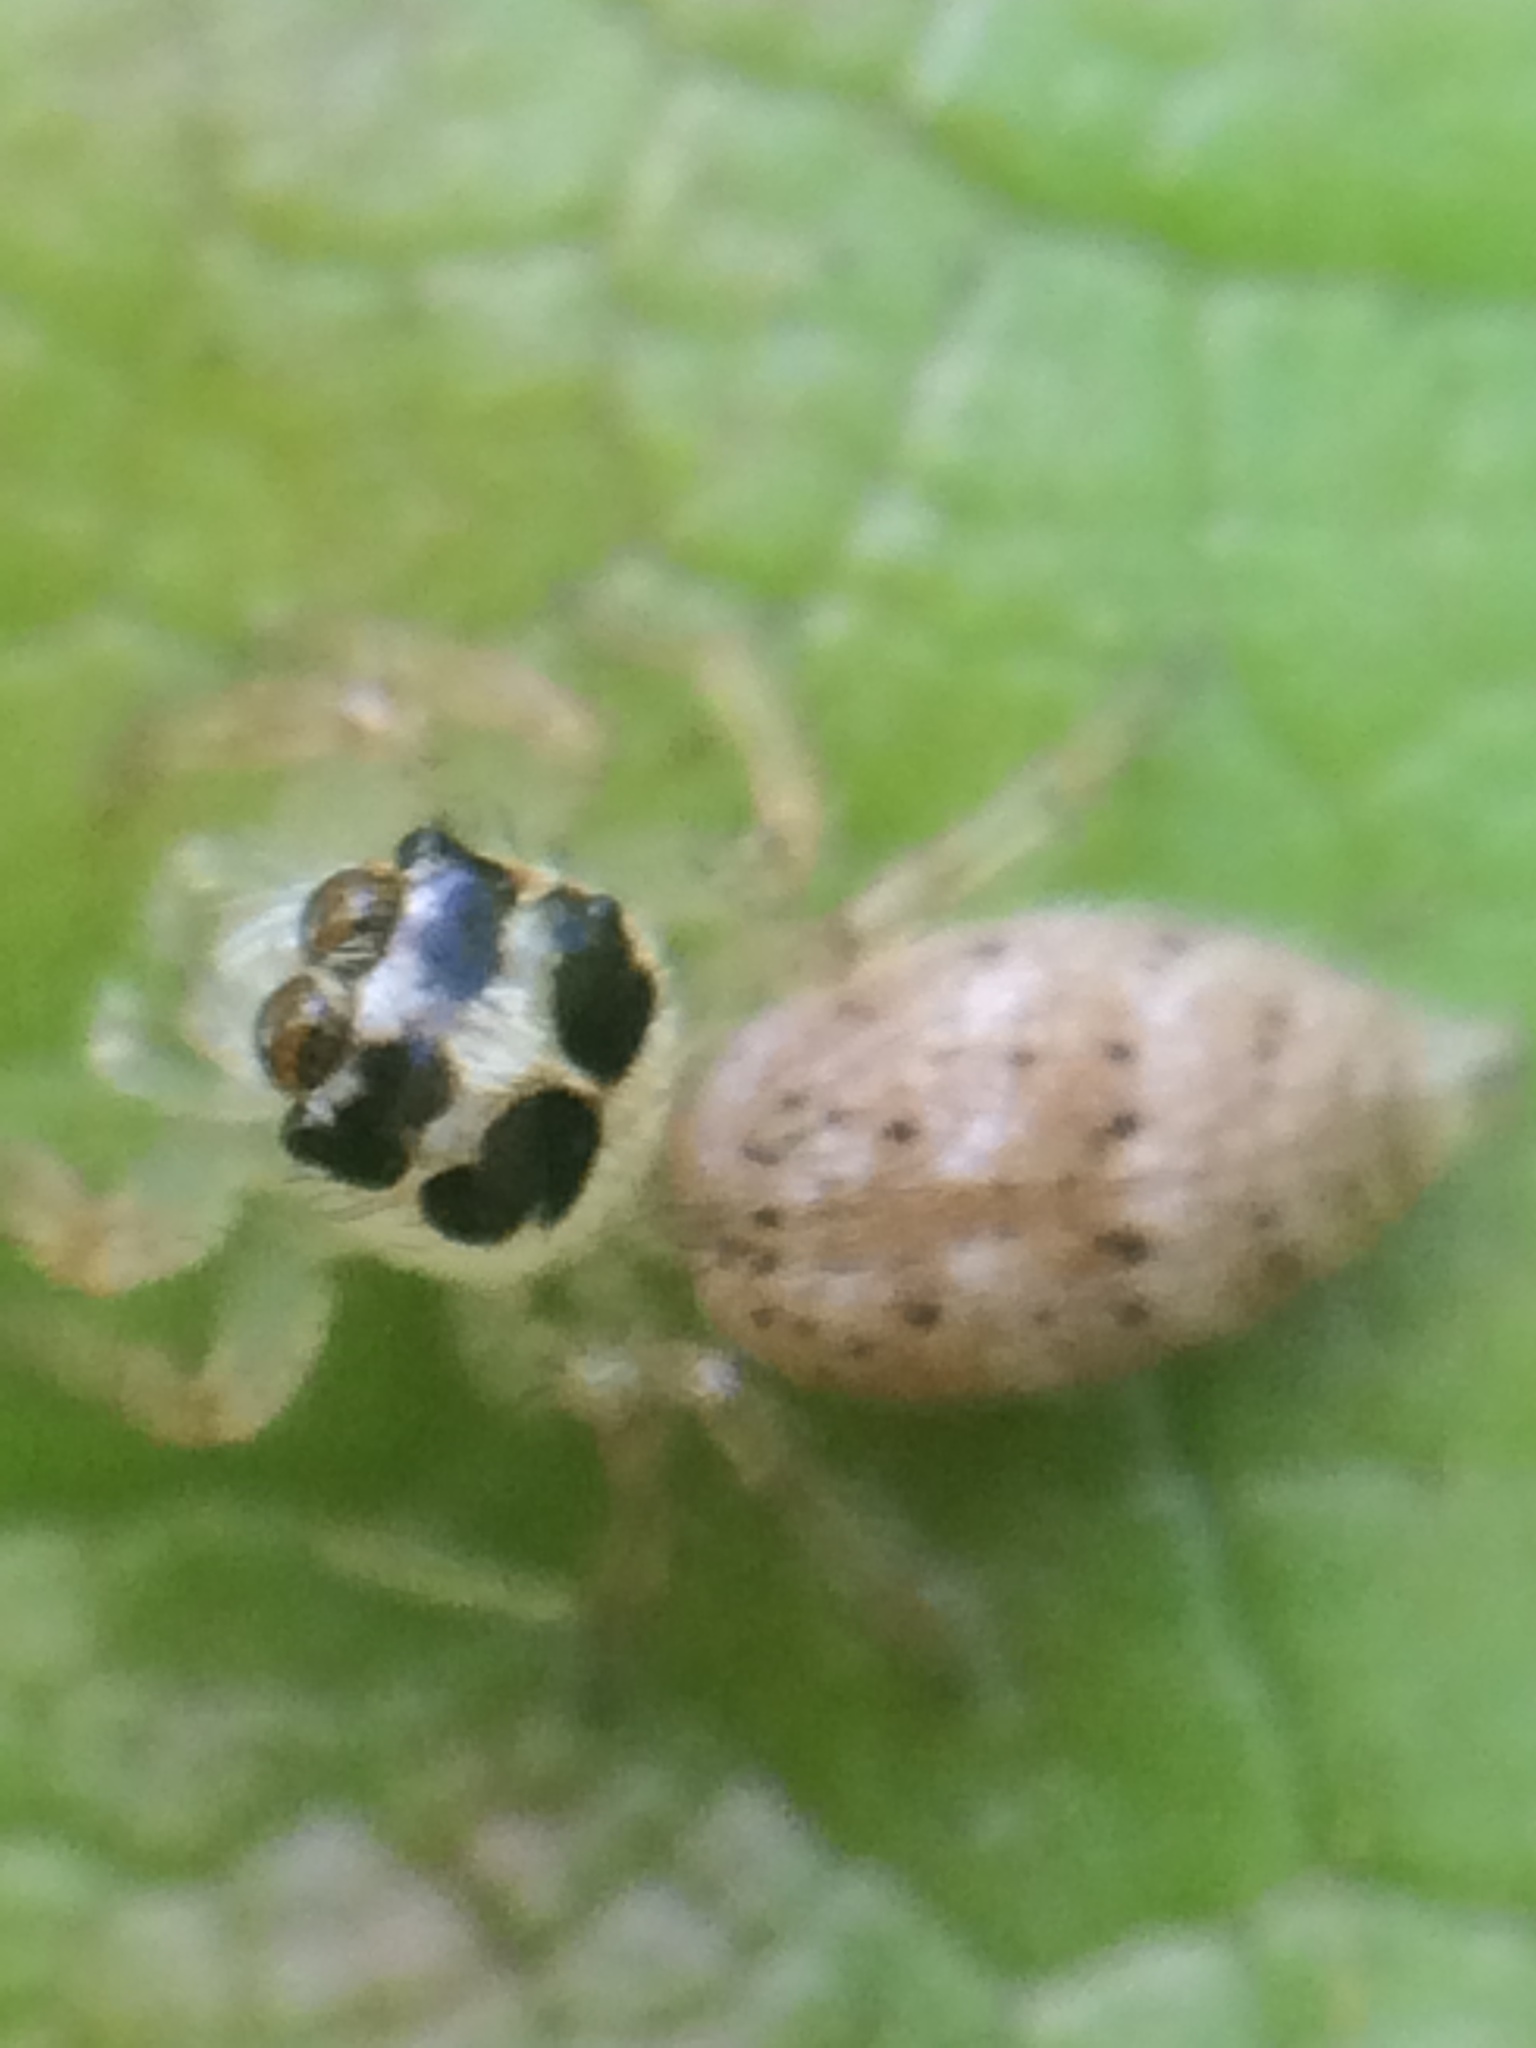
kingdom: Animalia
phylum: Arthropoda
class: Arachnida
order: Araneae
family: Salticidae
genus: Colonus
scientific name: Colonus hesperus
